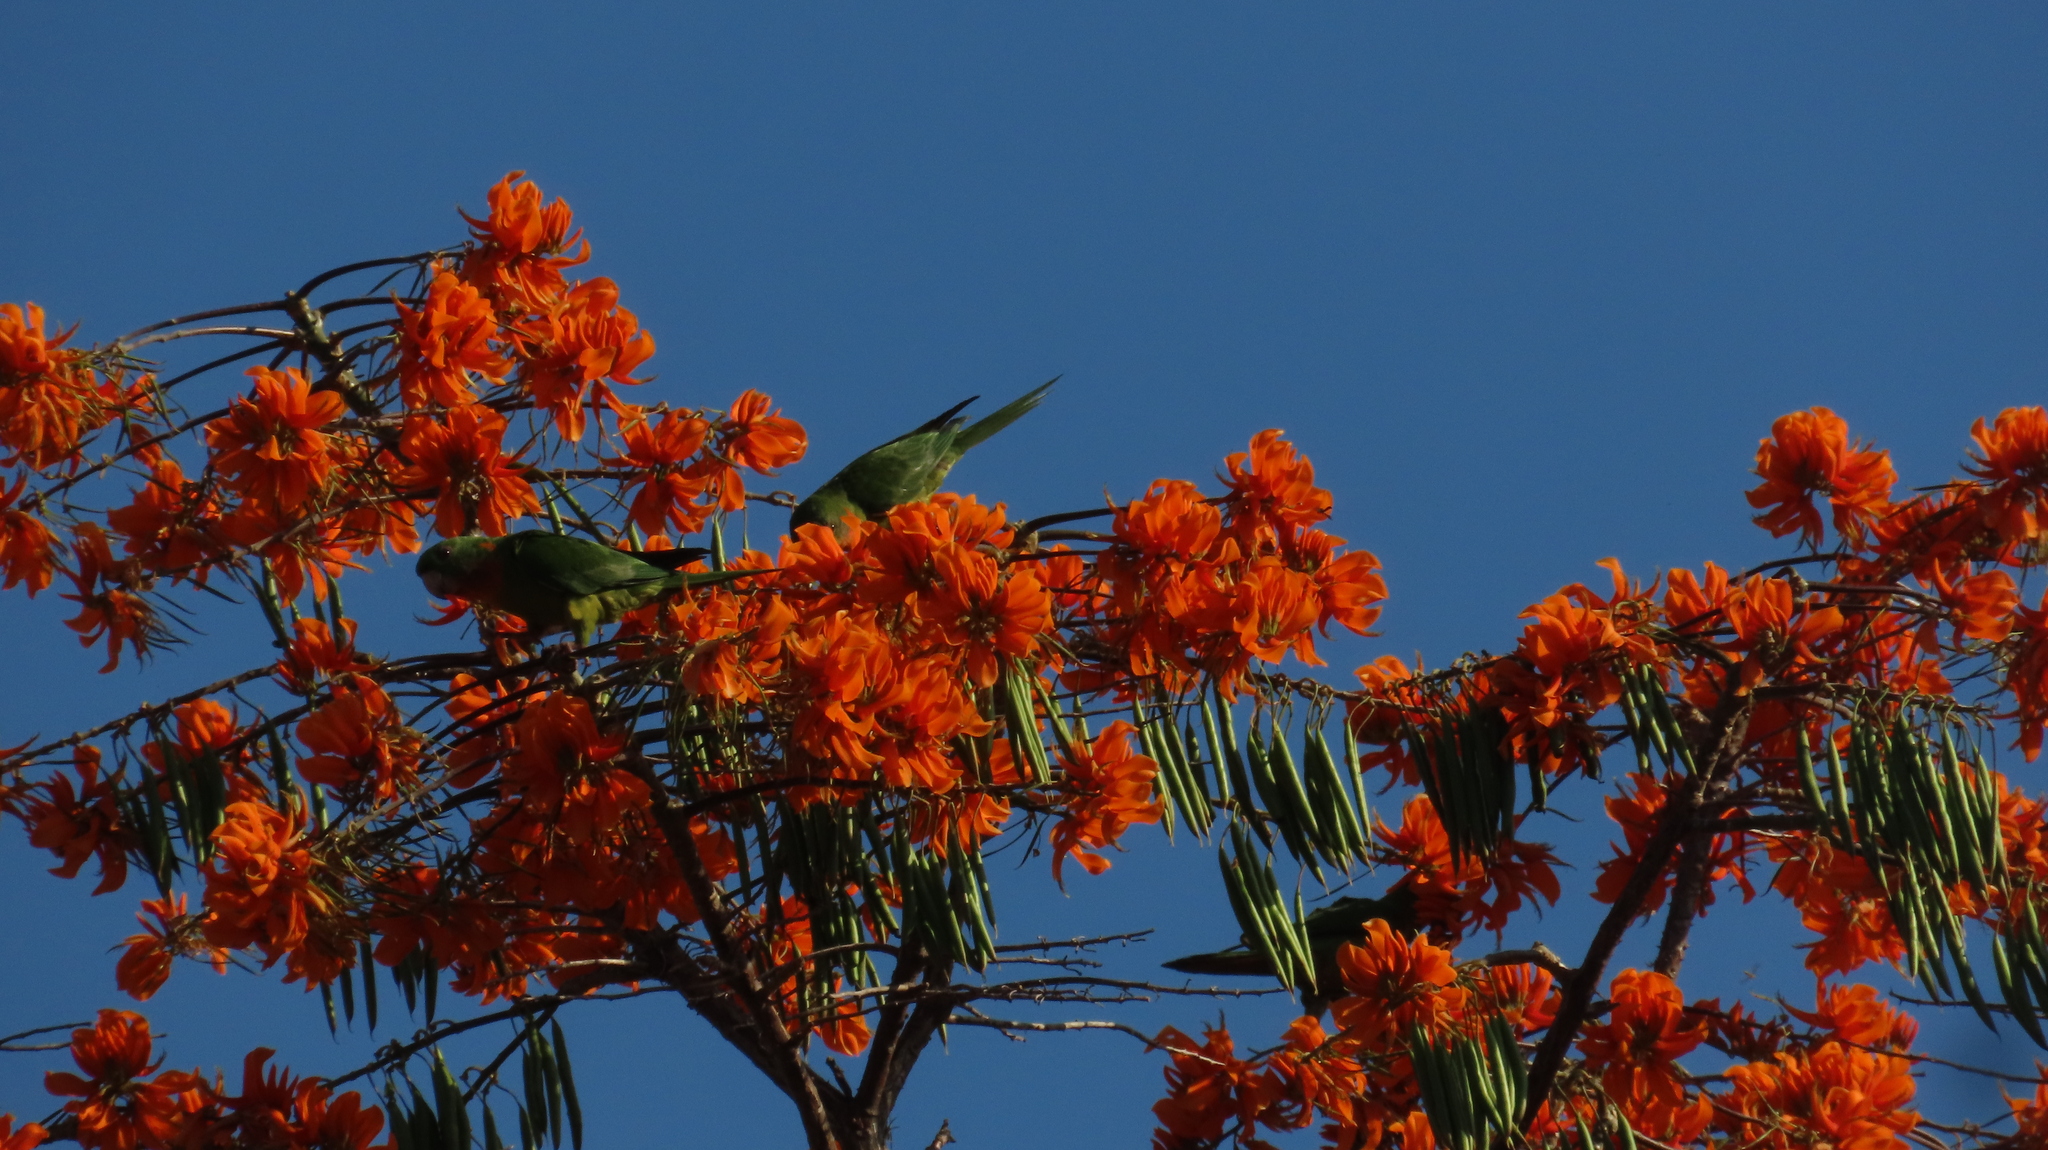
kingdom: Animalia
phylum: Chordata
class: Aves
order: Psittaciformes
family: Psittacidae
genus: Aratinga
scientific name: Aratinga holochlora
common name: Green parakeet
